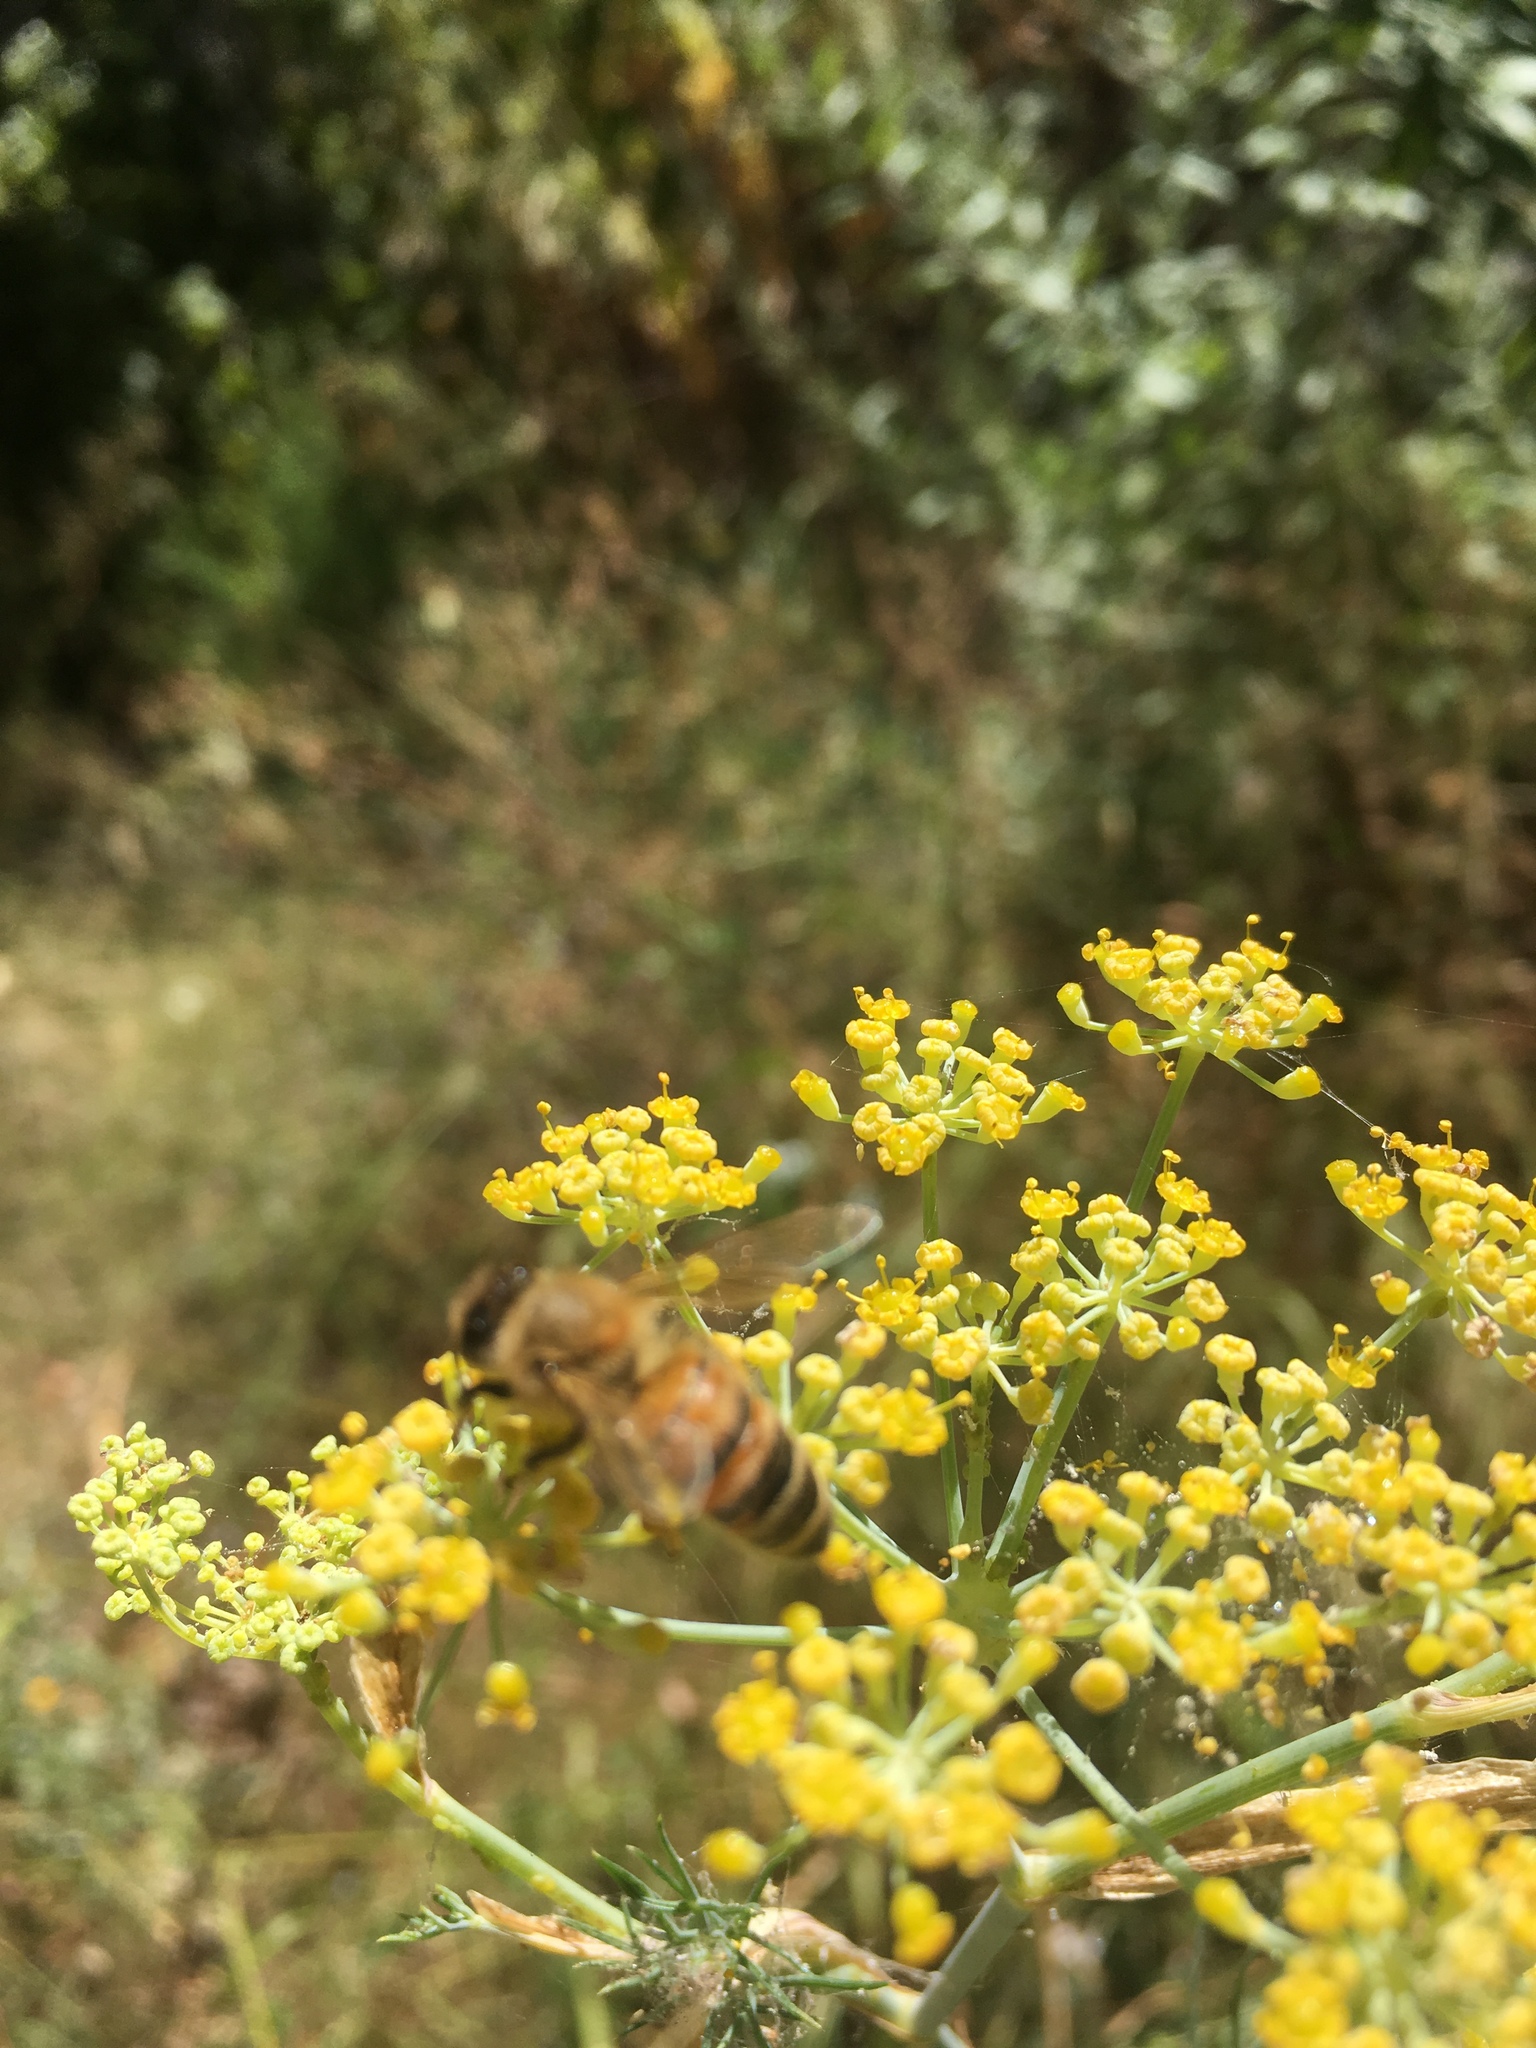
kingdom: Animalia
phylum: Arthropoda
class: Insecta
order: Hymenoptera
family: Apidae
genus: Apis
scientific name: Apis mellifera
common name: Honey bee
